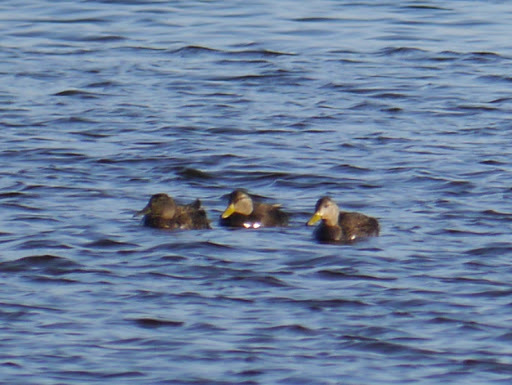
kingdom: Animalia
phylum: Chordata
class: Aves
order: Anseriformes
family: Anatidae
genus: Anas
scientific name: Anas rubripes
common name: American black duck
